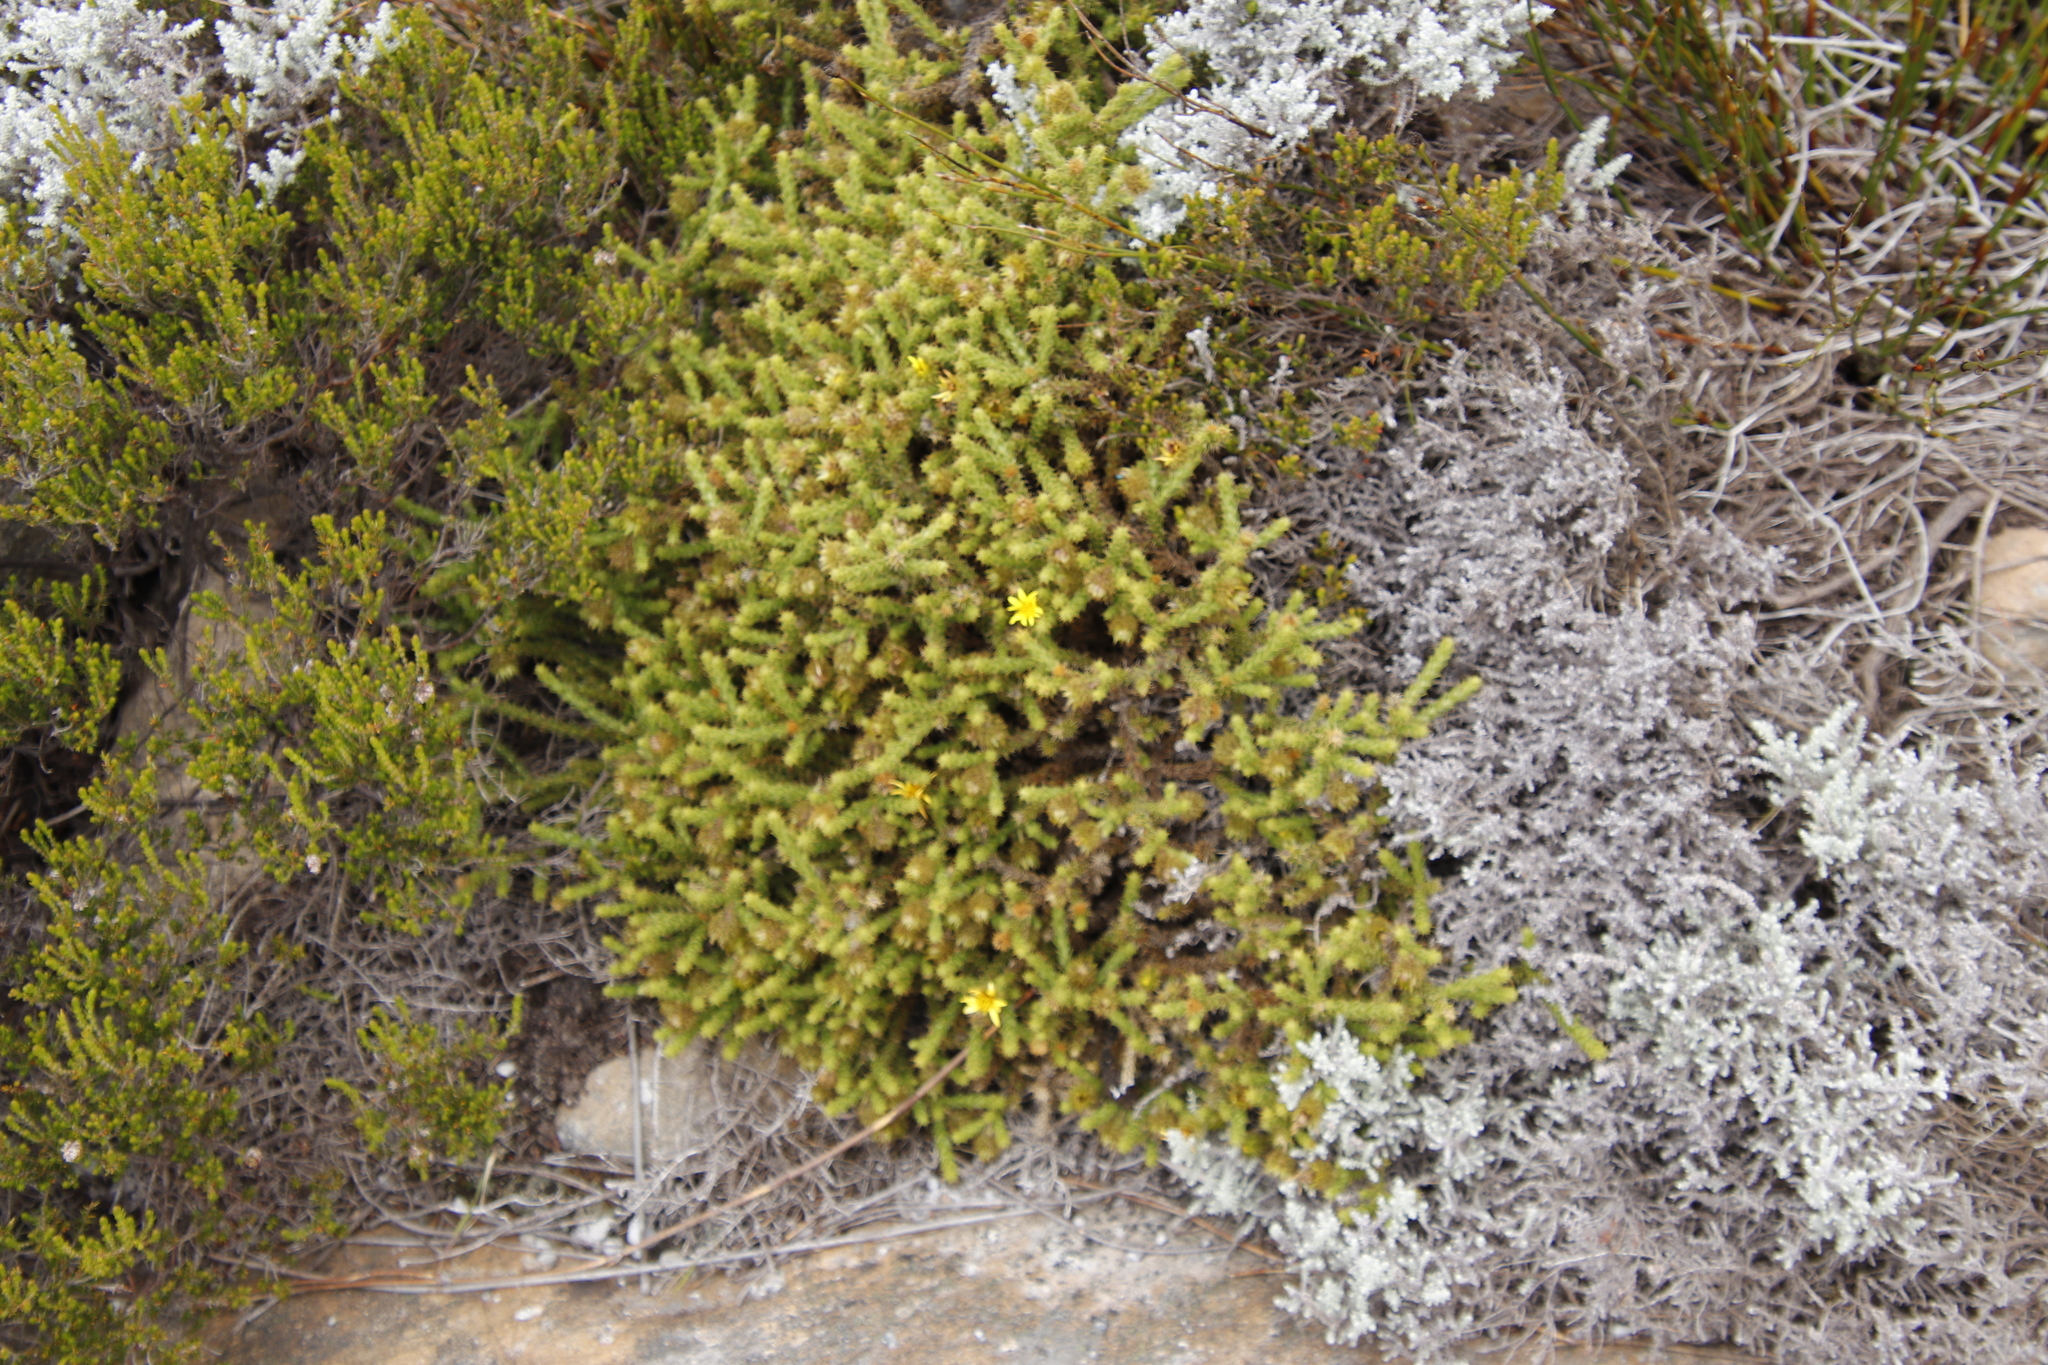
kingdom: Plantae
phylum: Tracheophyta
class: Magnoliopsida
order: Asterales
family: Asteraceae
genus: Cullumia
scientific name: Cullumia reticulata
